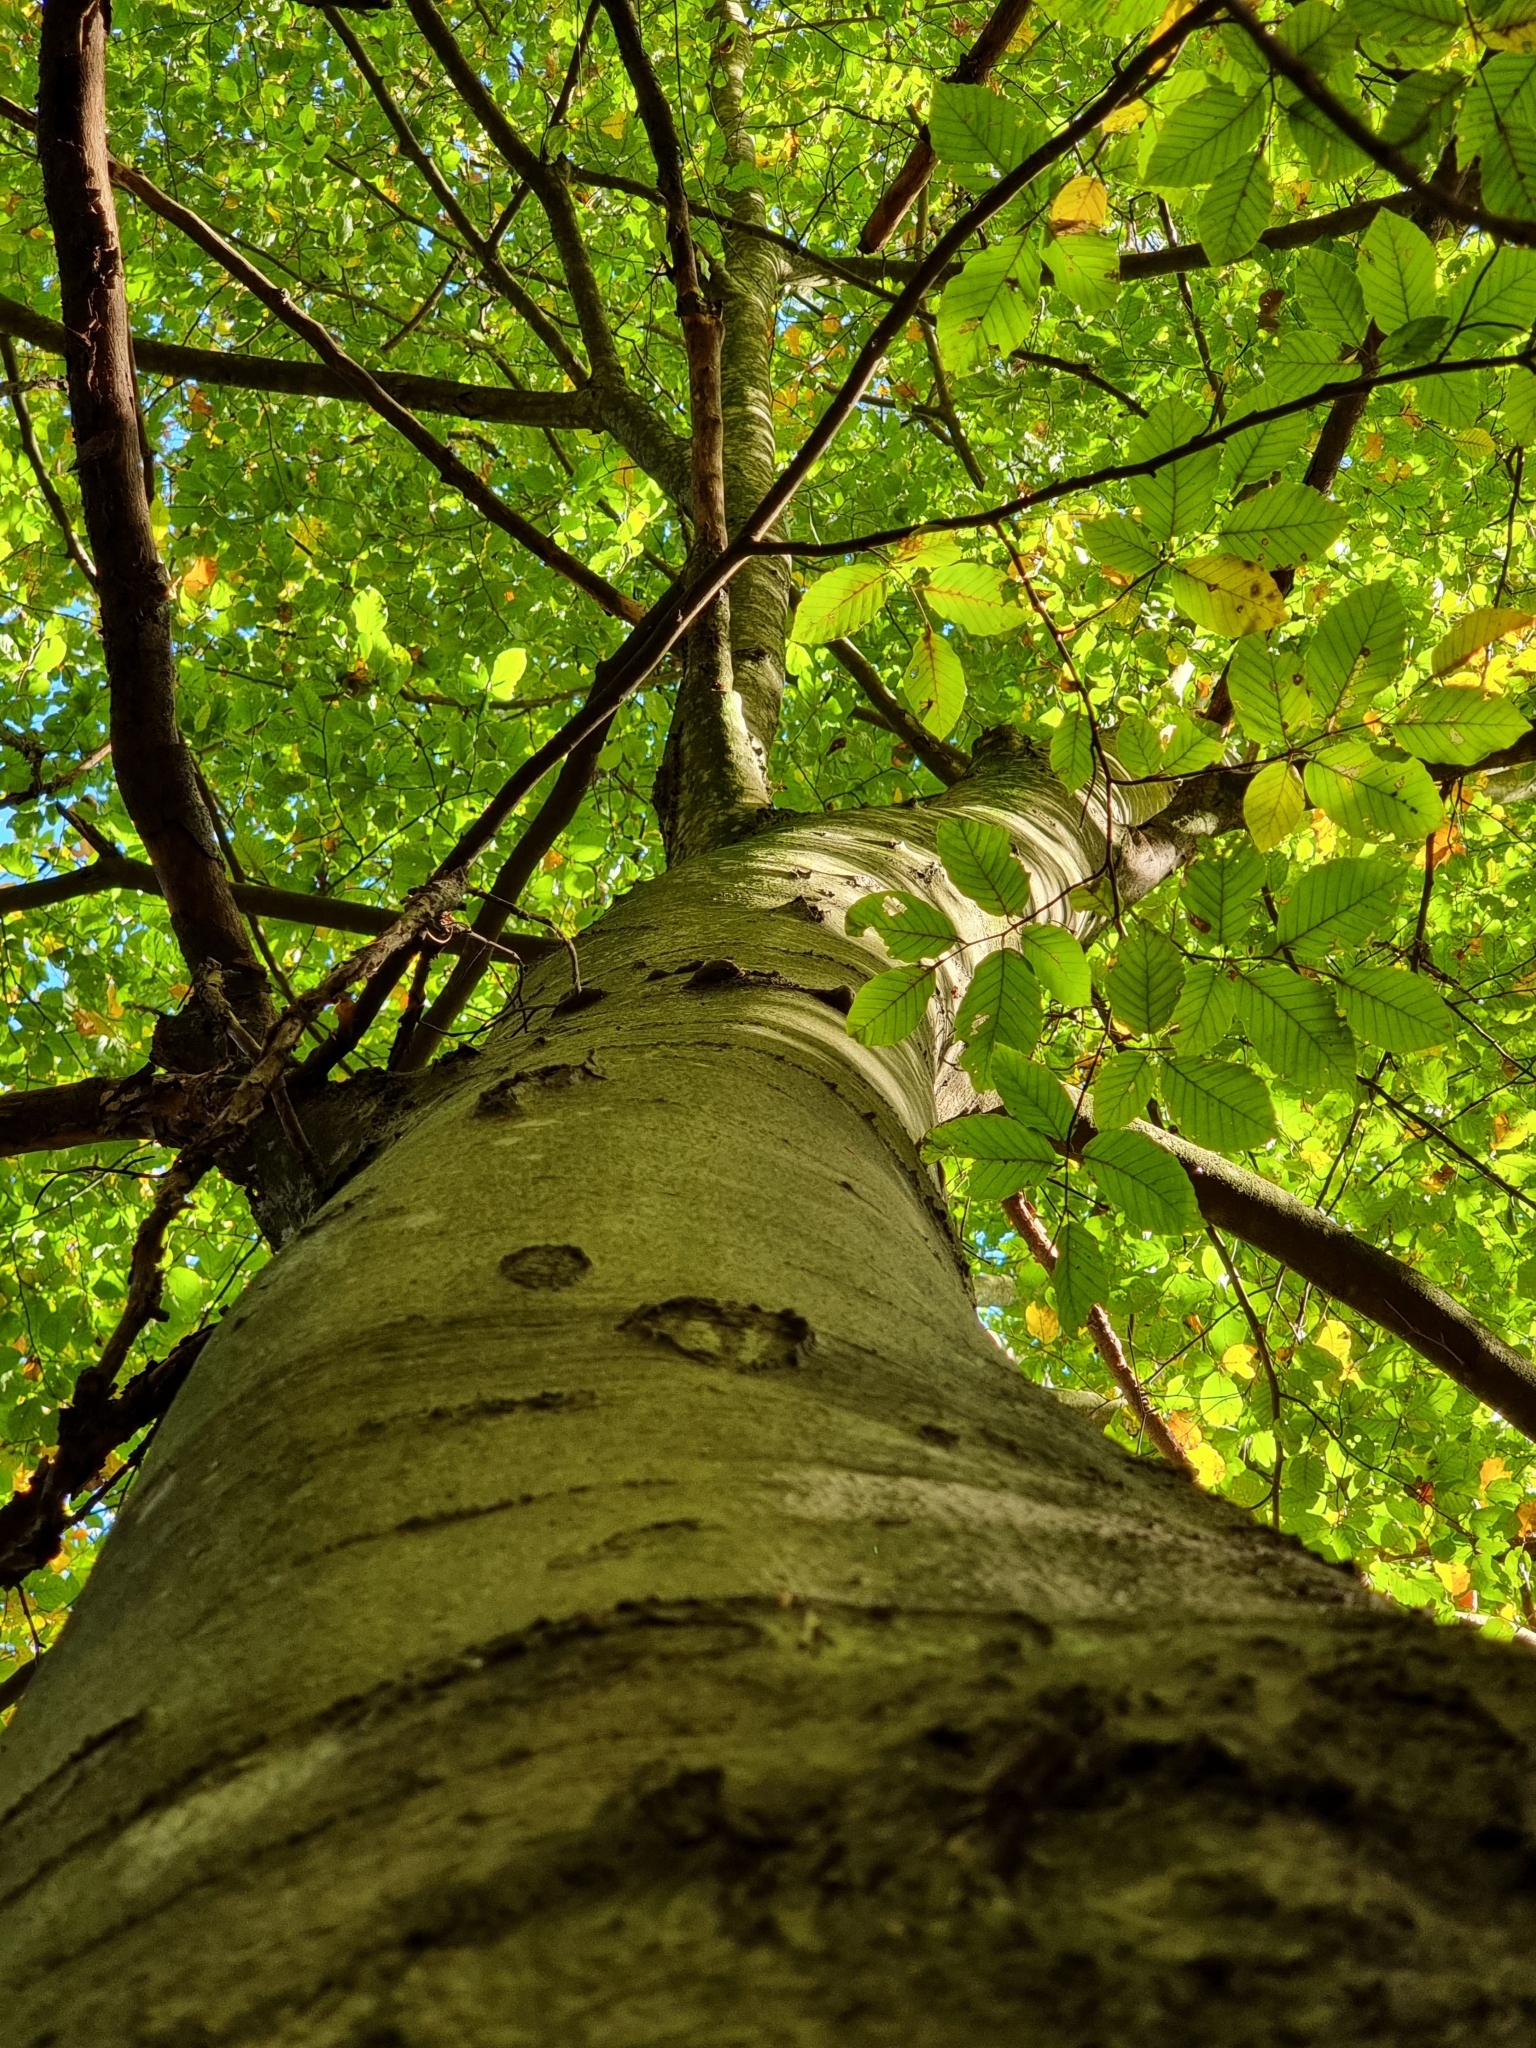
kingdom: Plantae
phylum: Tracheophyta
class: Magnoliopsida
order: Fagales
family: Fagaceae
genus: Fagus
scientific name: Fagus sylvatica
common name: Beech
